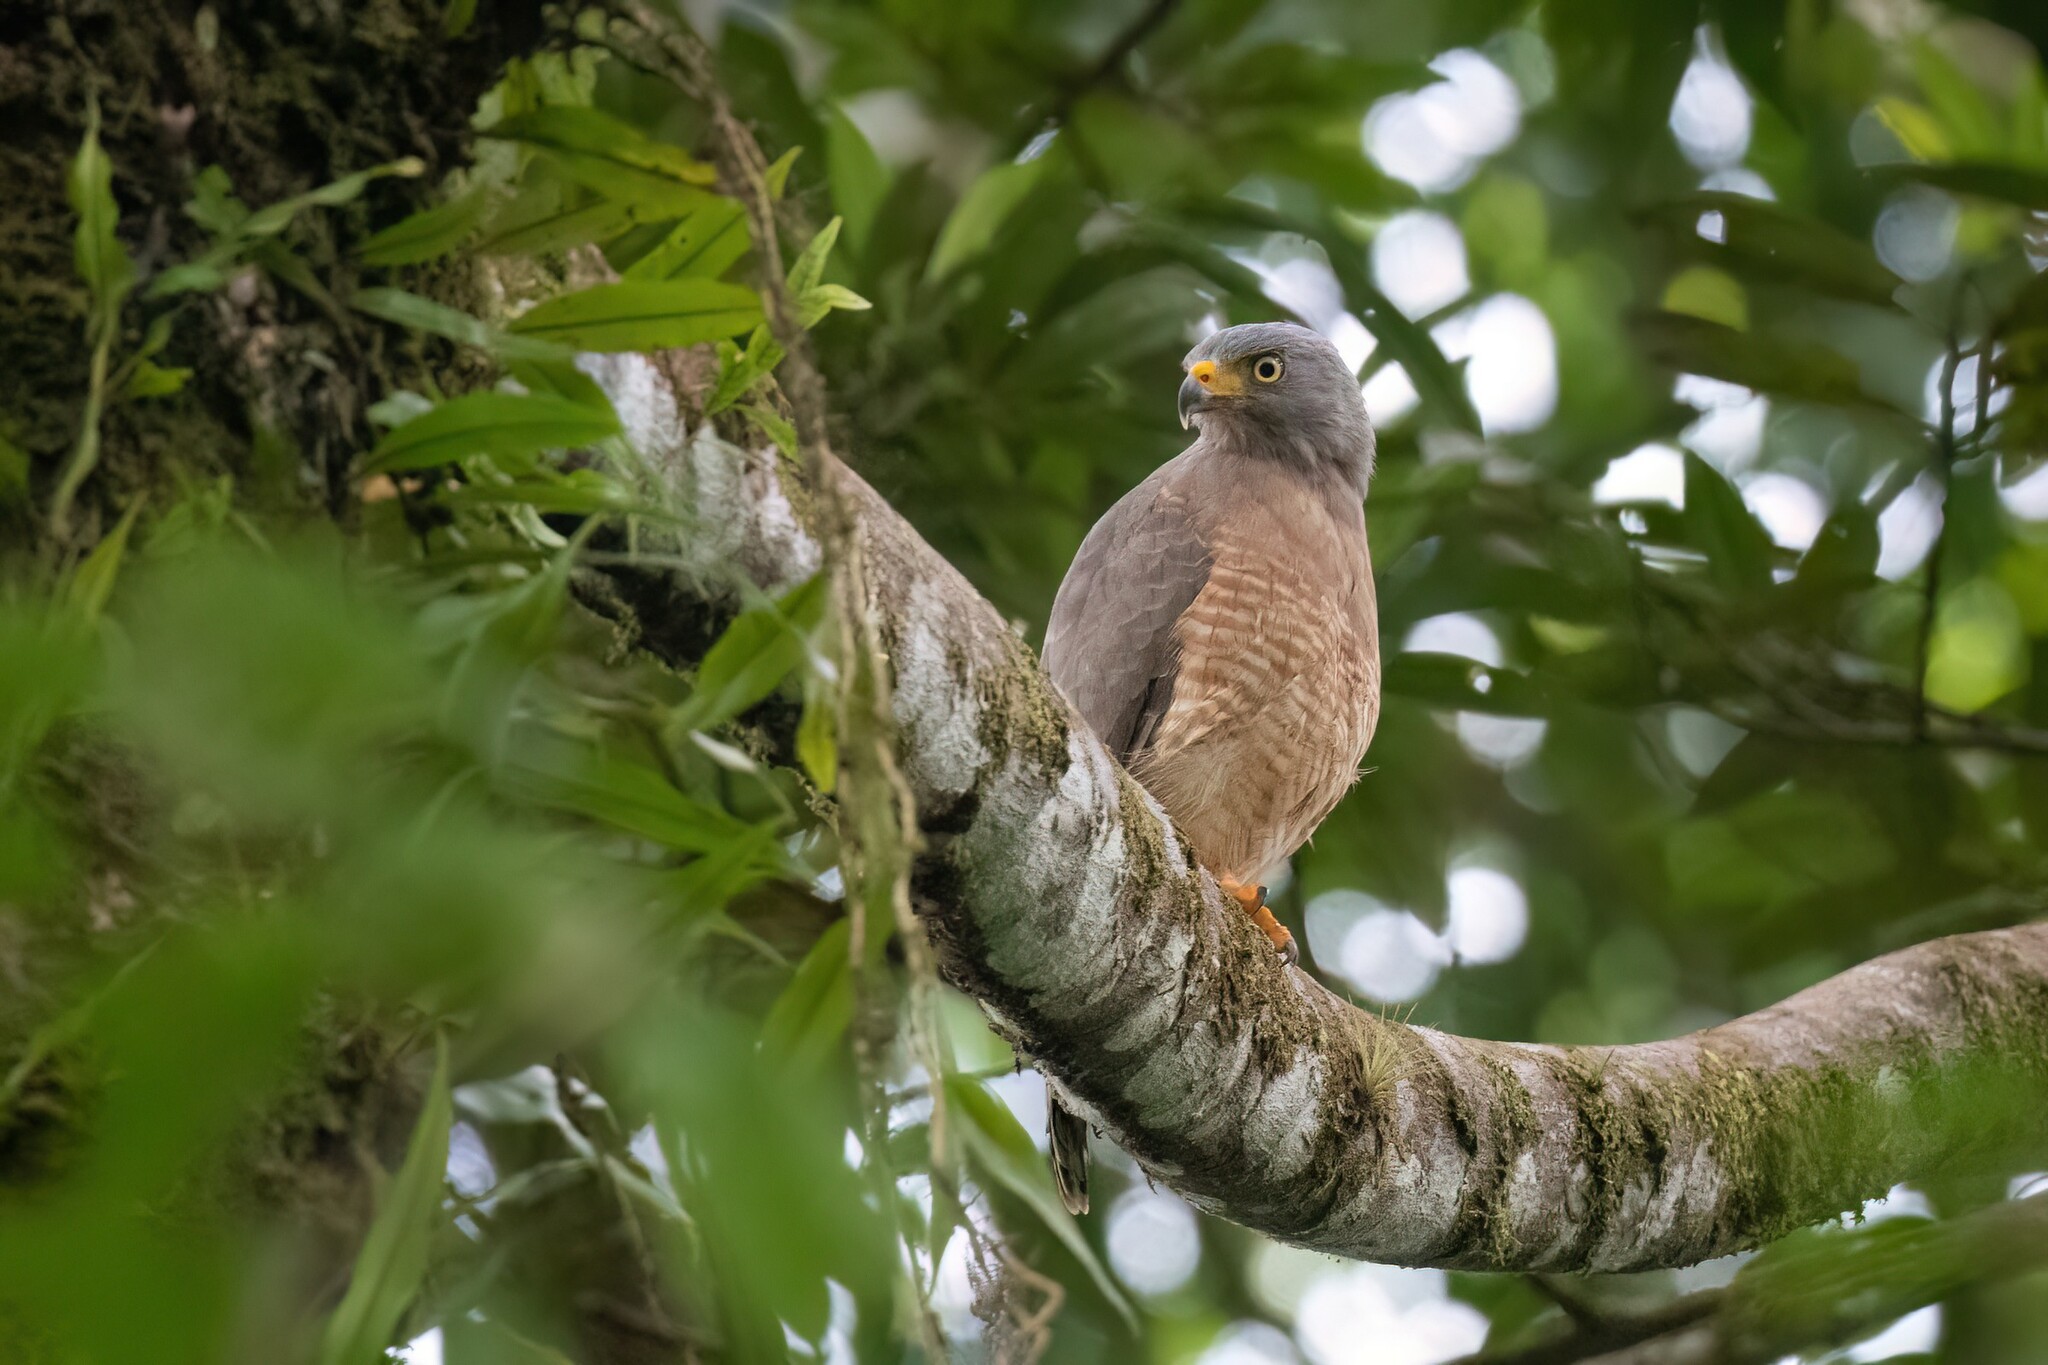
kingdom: Animalia
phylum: Chordata
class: Aves
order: Accipitriformes
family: Accipitridae
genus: Rupornis
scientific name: Rupornis magnirostris
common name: Roadside hawk
